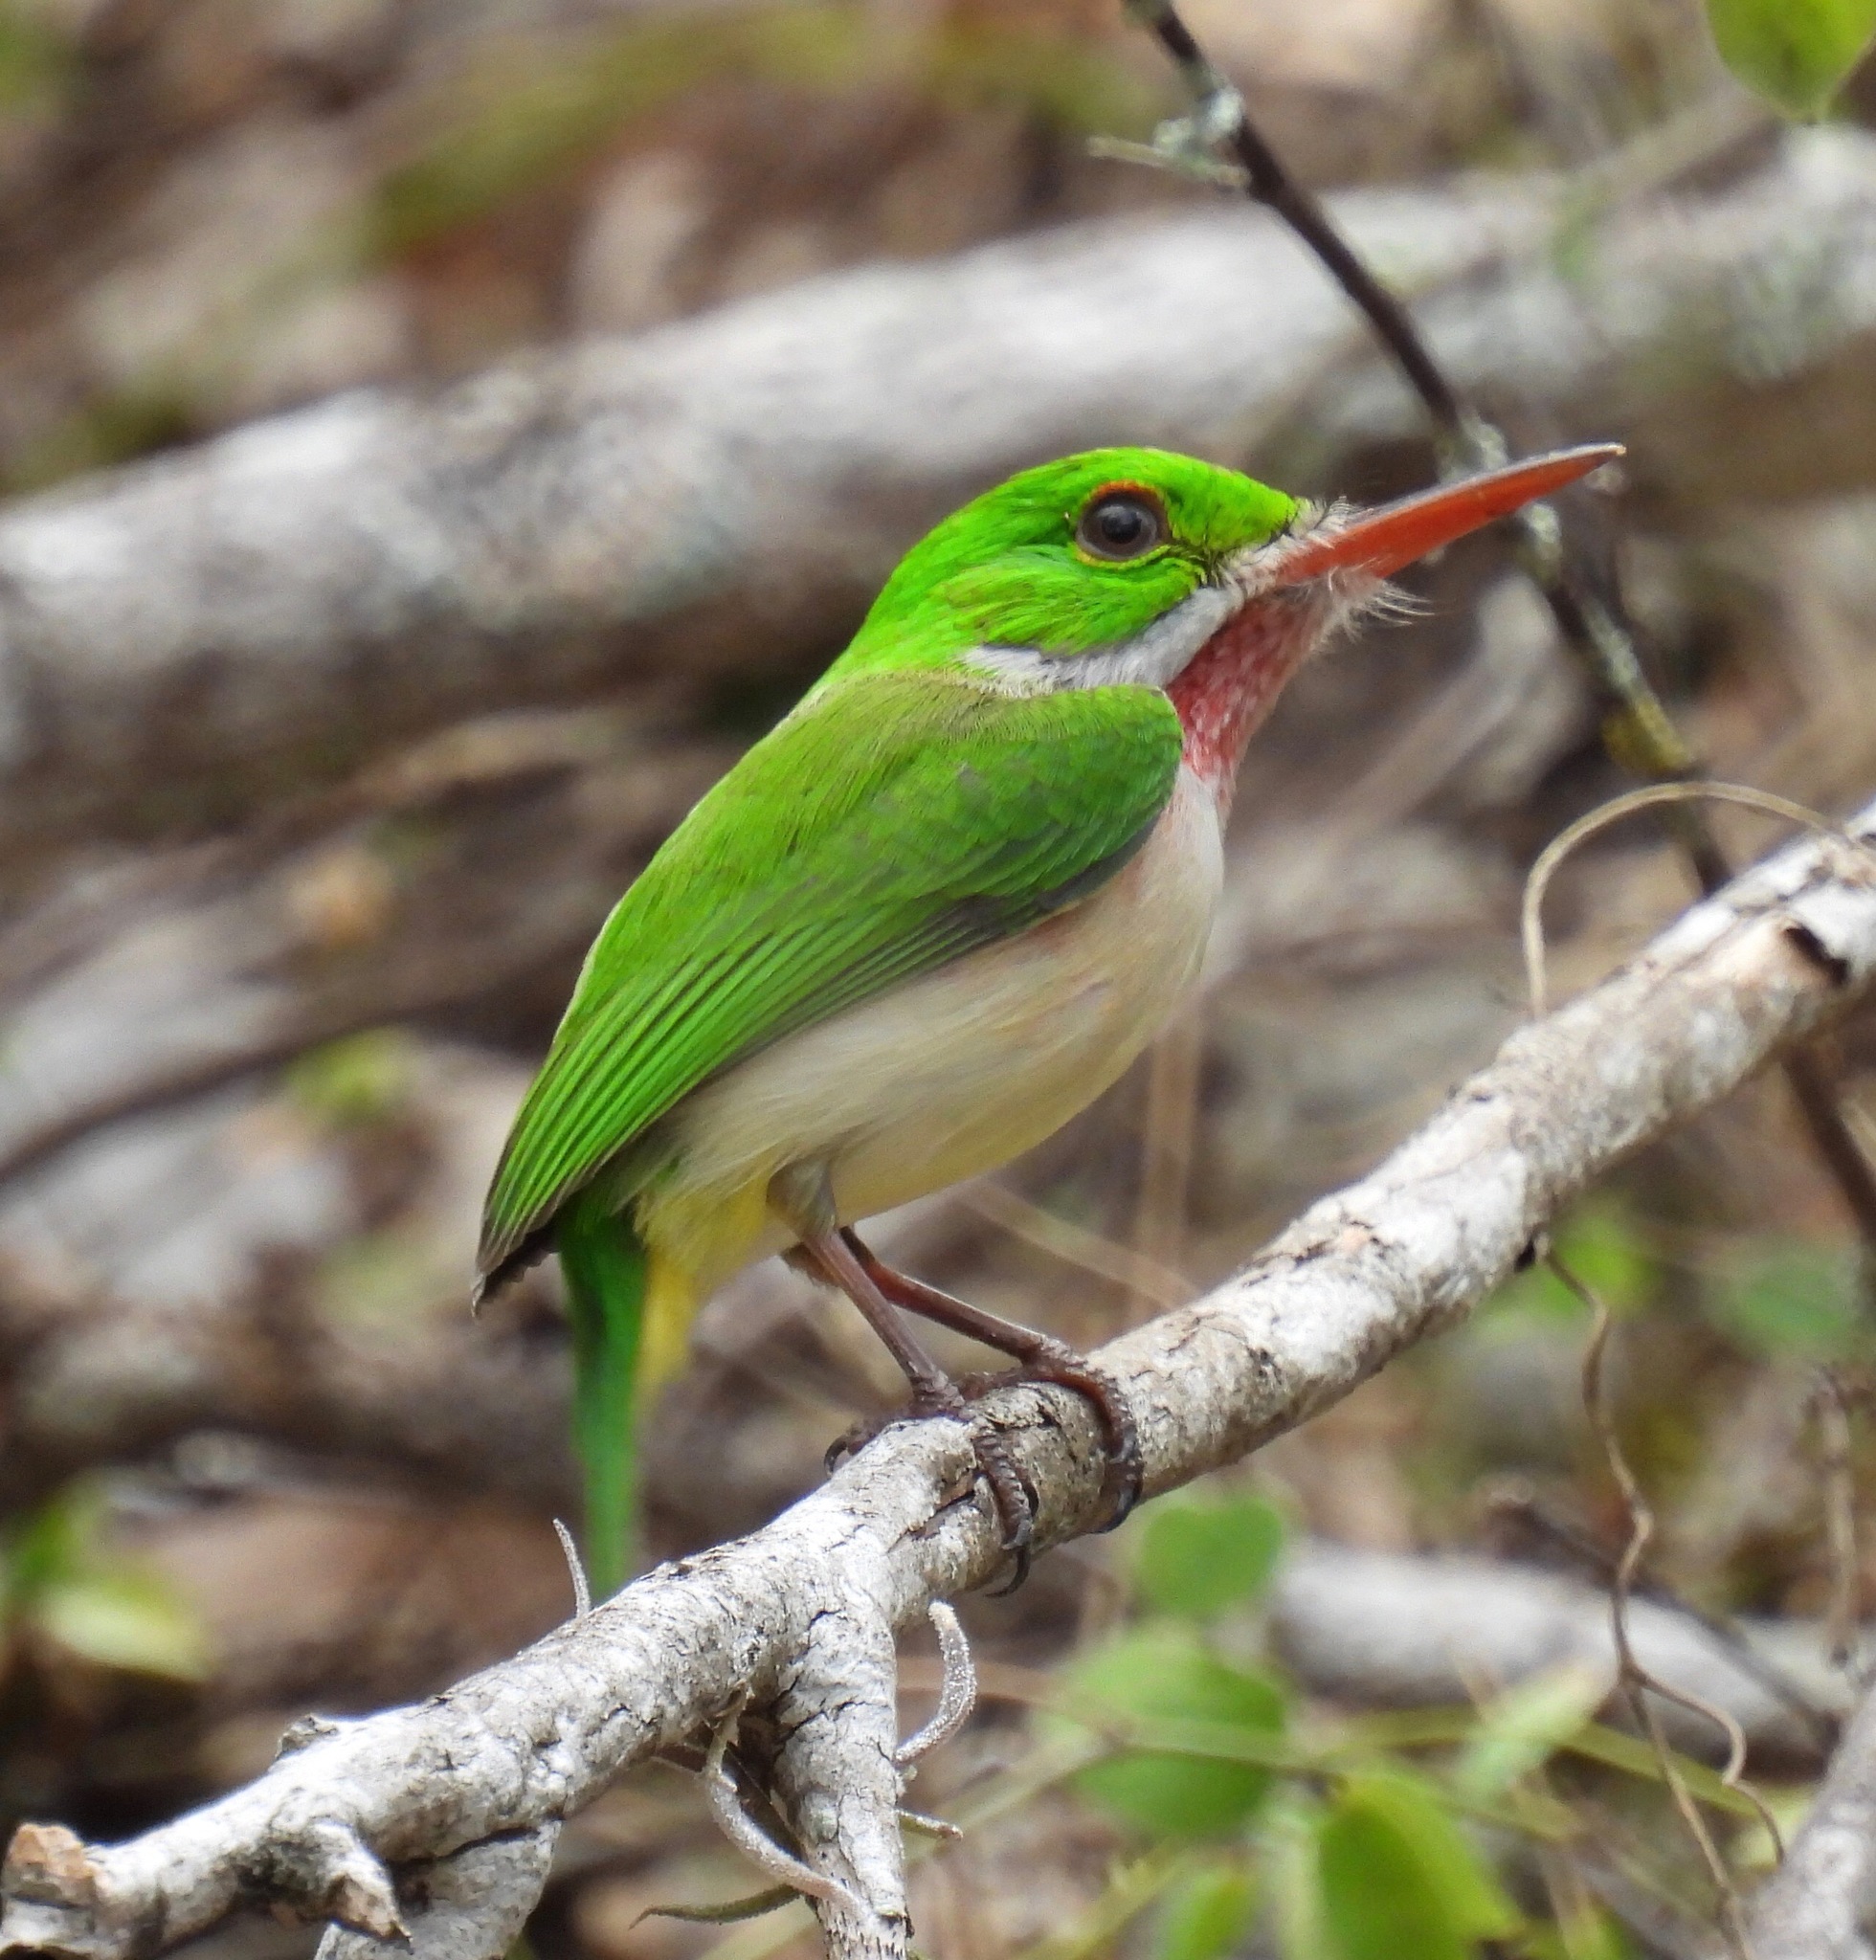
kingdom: Animalia
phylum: Chordata
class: Aves
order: Coraciiformes
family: Todidae
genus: Todus
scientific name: Todus subulatus
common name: Broad-billed tody
